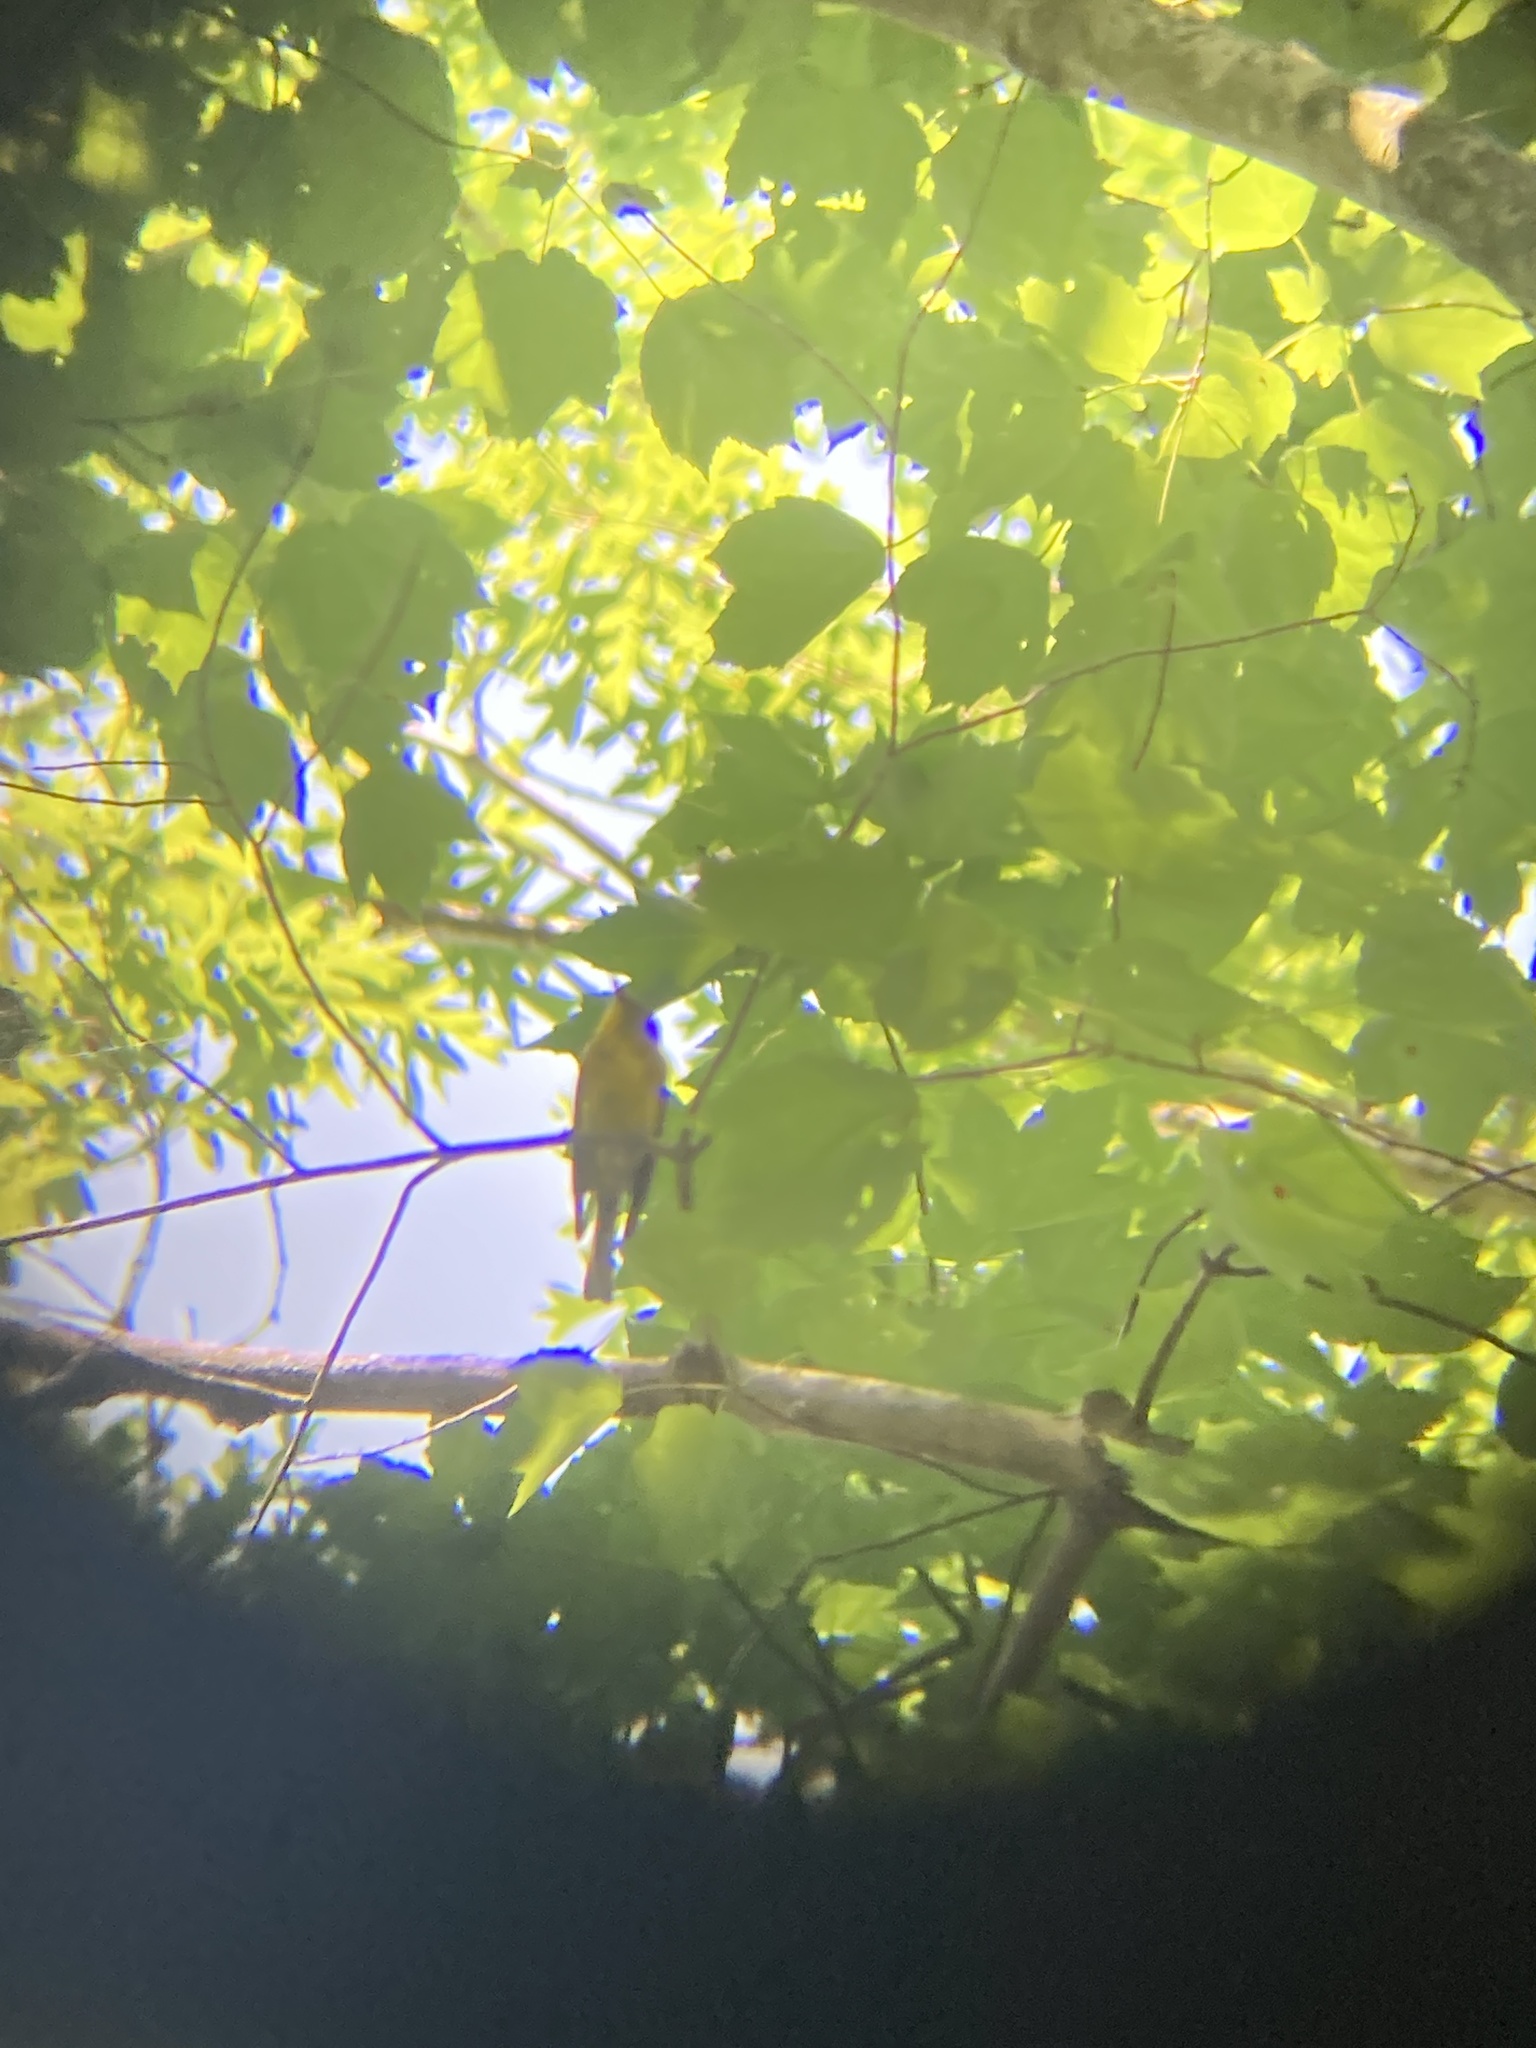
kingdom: Animalia
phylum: Chordata
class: Aves
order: Passeriformes
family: Parulidae
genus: Setophaga
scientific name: Setophaga pinus
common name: Pine warbler
